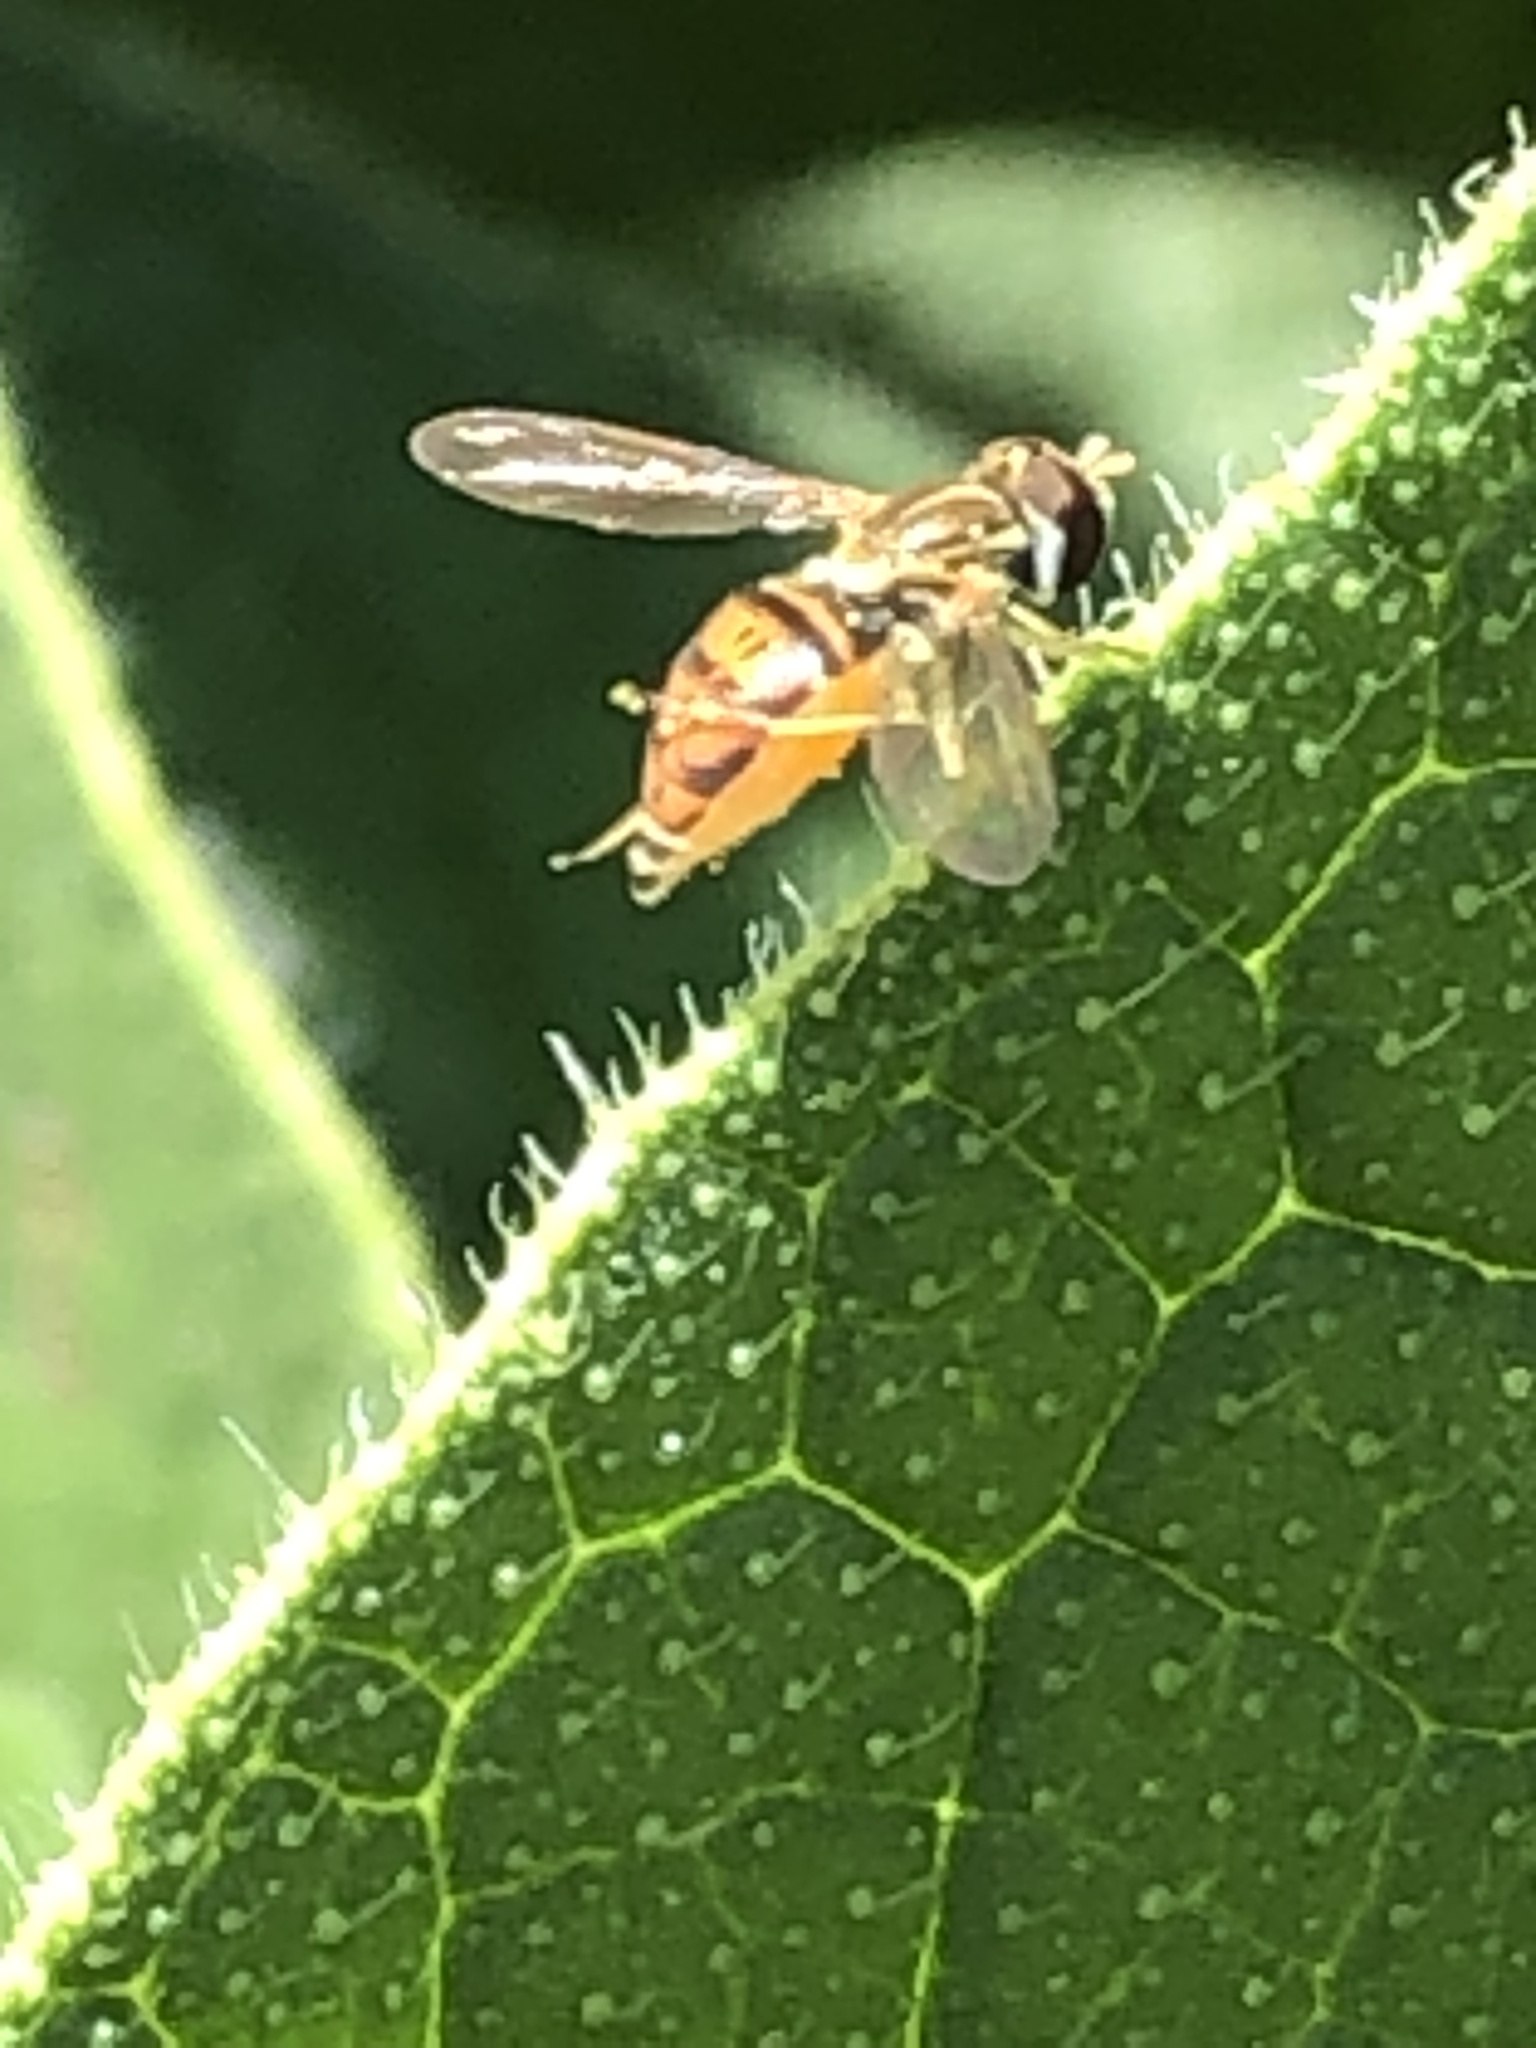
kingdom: Animalia
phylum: Arthropoda
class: Insecta
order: Diptera
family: Syrphidae
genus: Toxomerus
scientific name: Toxomerus marginatus
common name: Syrphid fly
